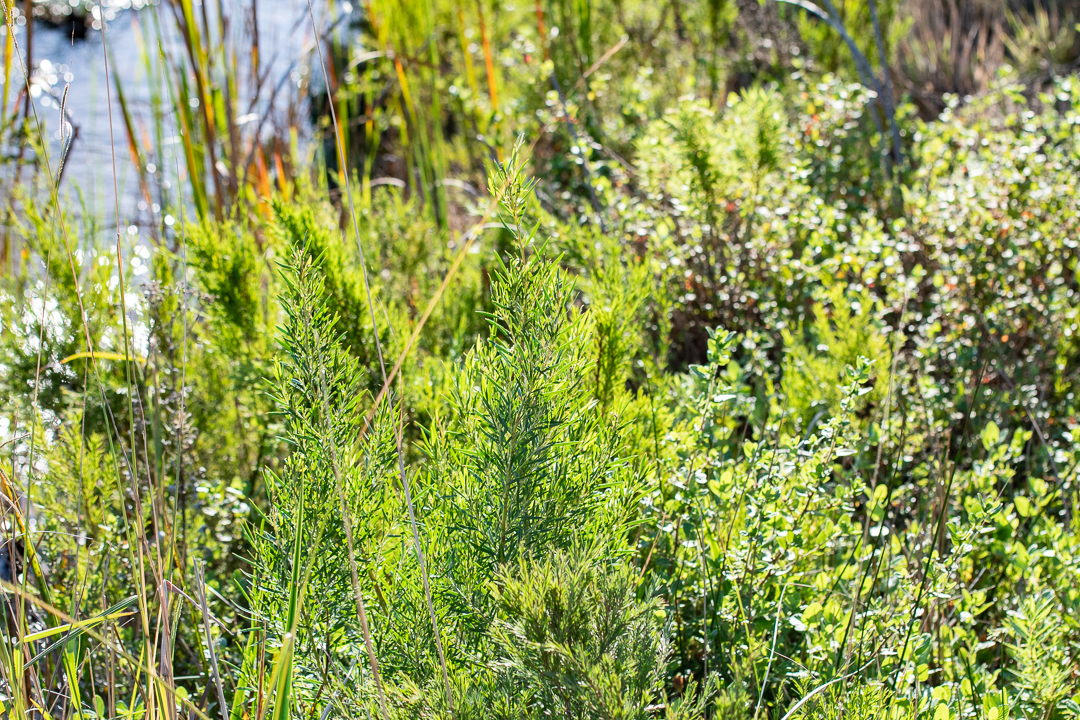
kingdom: Plantae
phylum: Tracheophyta
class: Pinopsida
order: Pinales
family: Cupressaceae
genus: Widdringtonia
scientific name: Widdringtonia nodiflora
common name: Cape cypress
